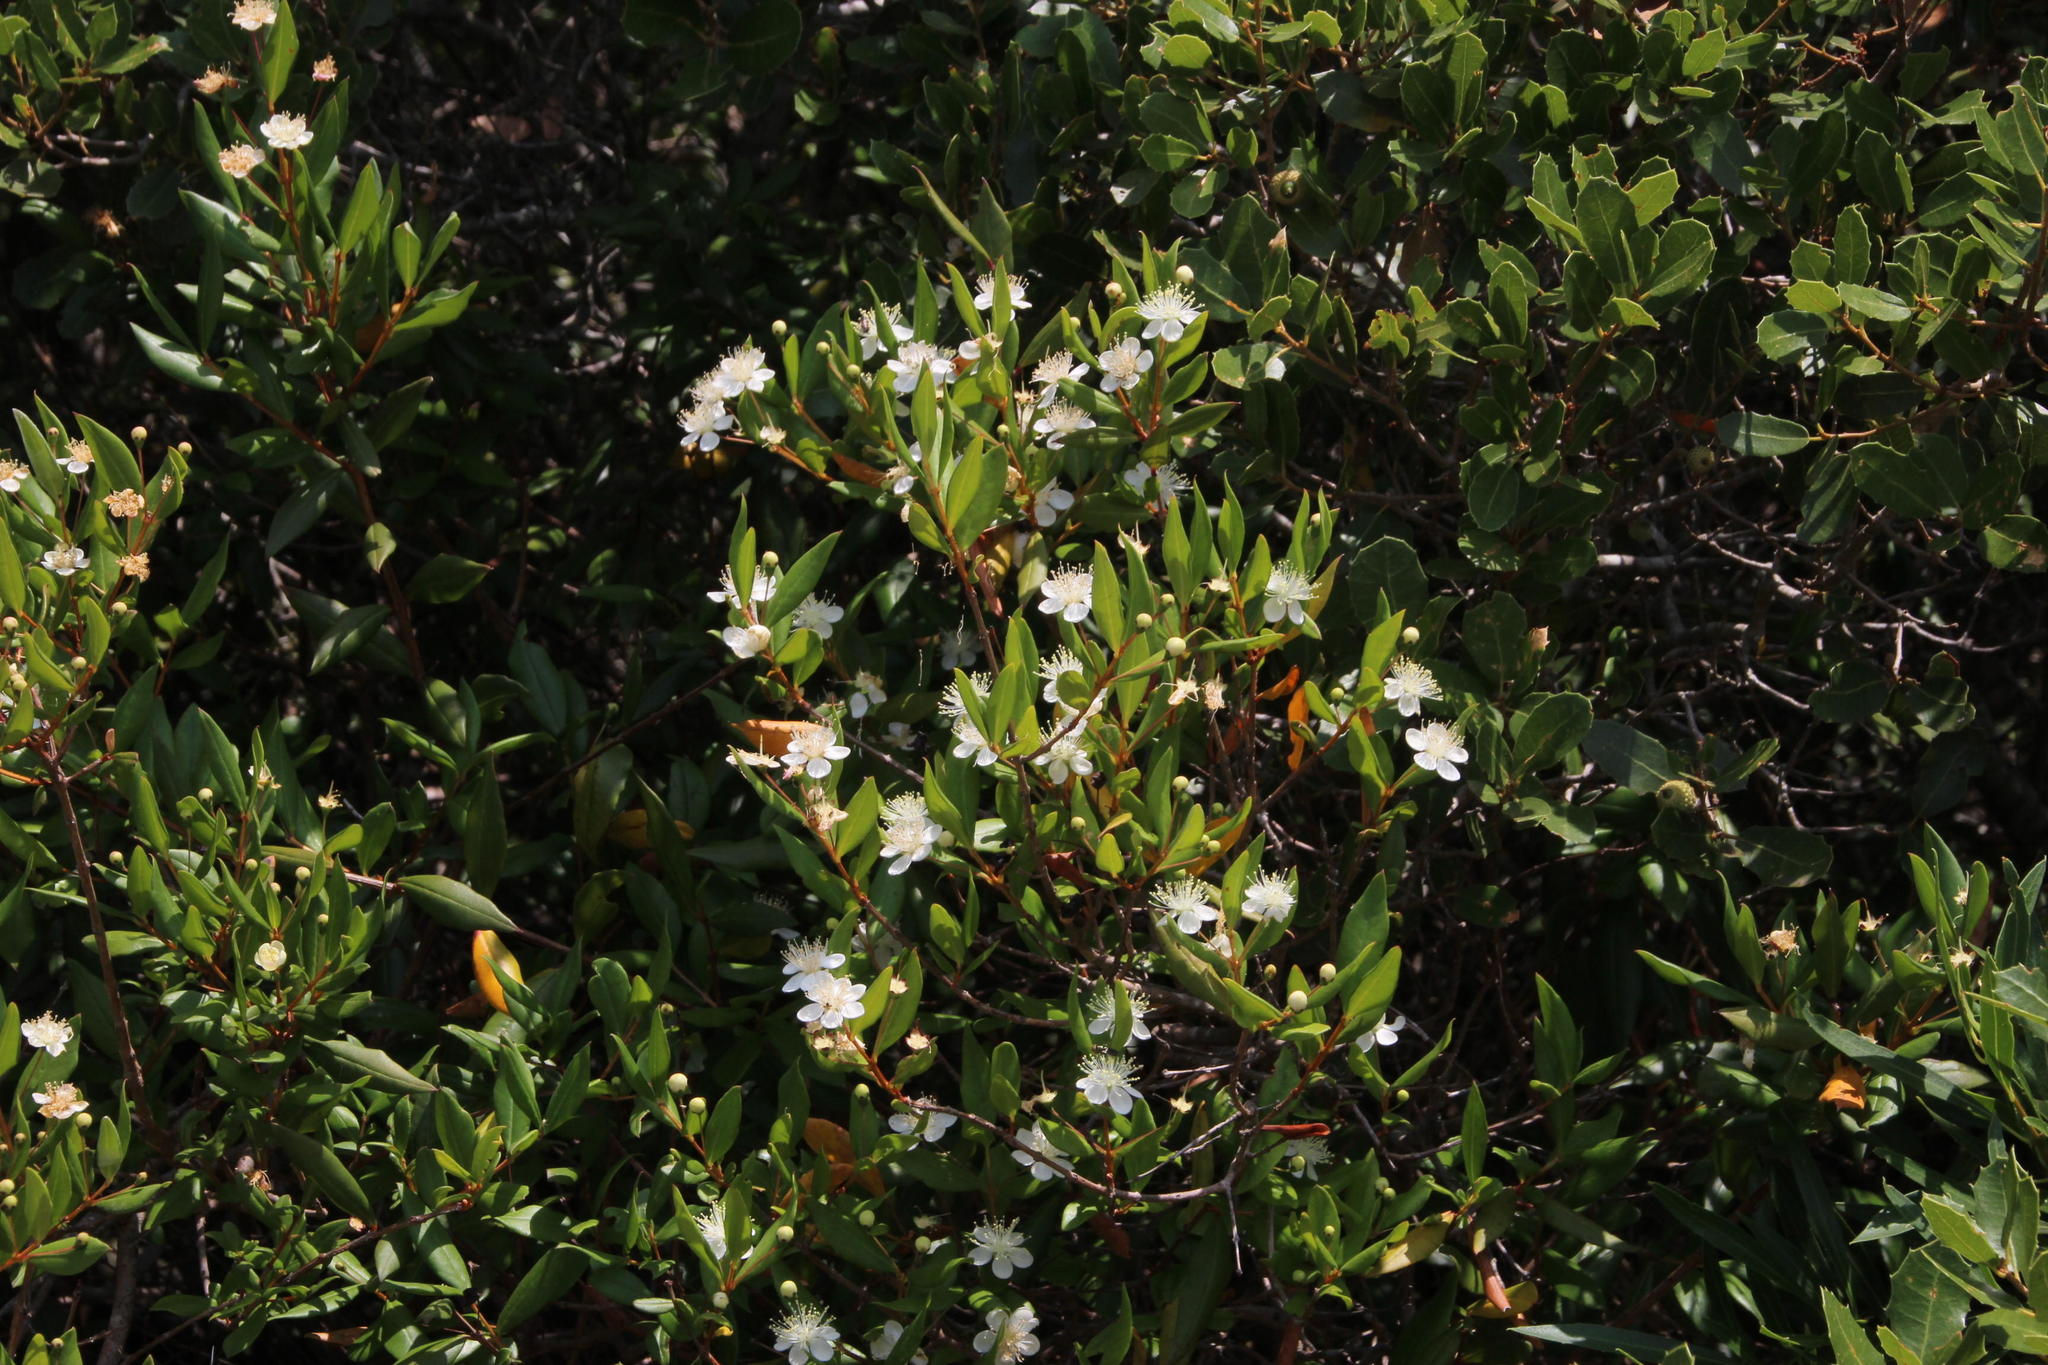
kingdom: Plantae
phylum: Tracheophyta
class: Magnoliopsida
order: Myrtales
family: Myrtaceae
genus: Myrtus
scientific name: Myrtus communis
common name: Myrtle
